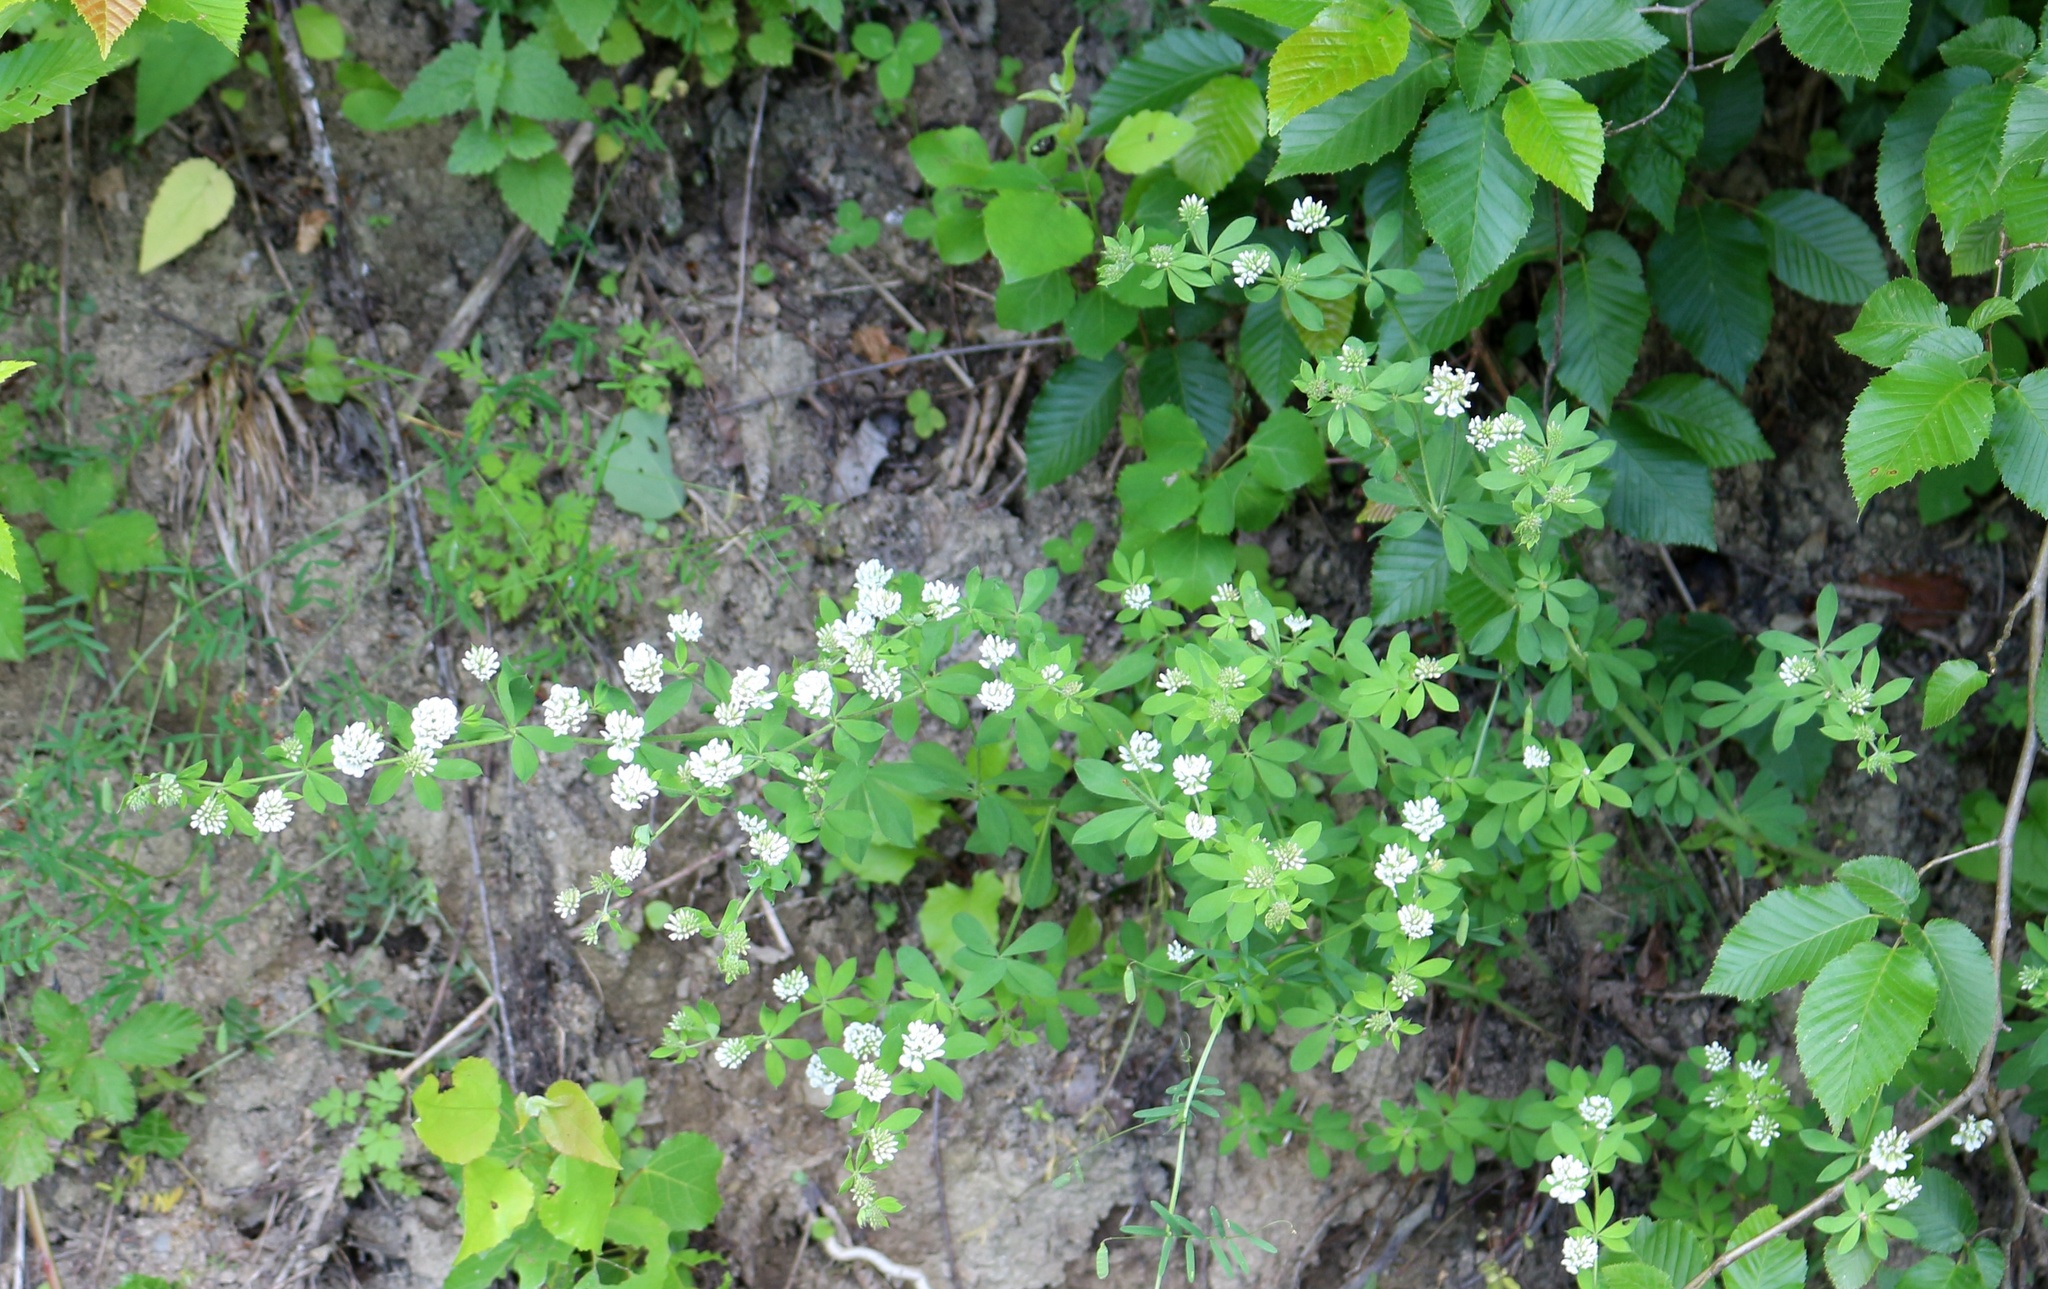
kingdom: Plantae
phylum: Tracheophyta
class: Magnoliopsida
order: Fabales
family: Fabaceae
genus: Lotus
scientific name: Lotus graecus
